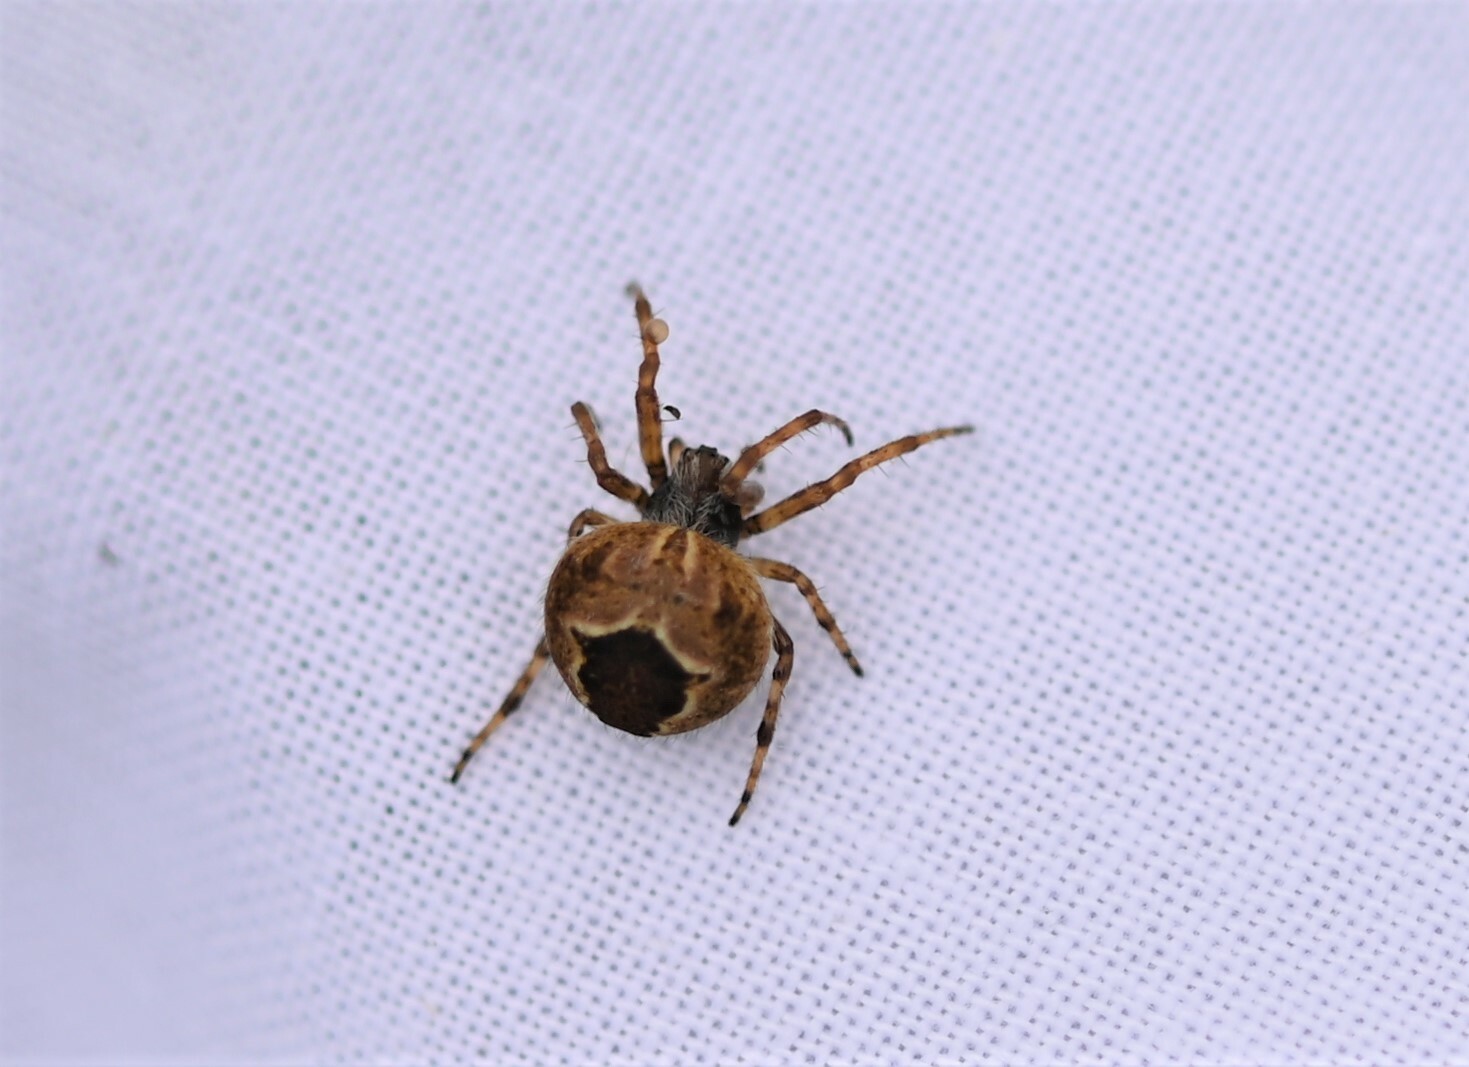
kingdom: Animalia
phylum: Arthropoda
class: Arachnida
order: Araneae
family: Araneidae
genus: Agalenatea
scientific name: Agalenatea redii
